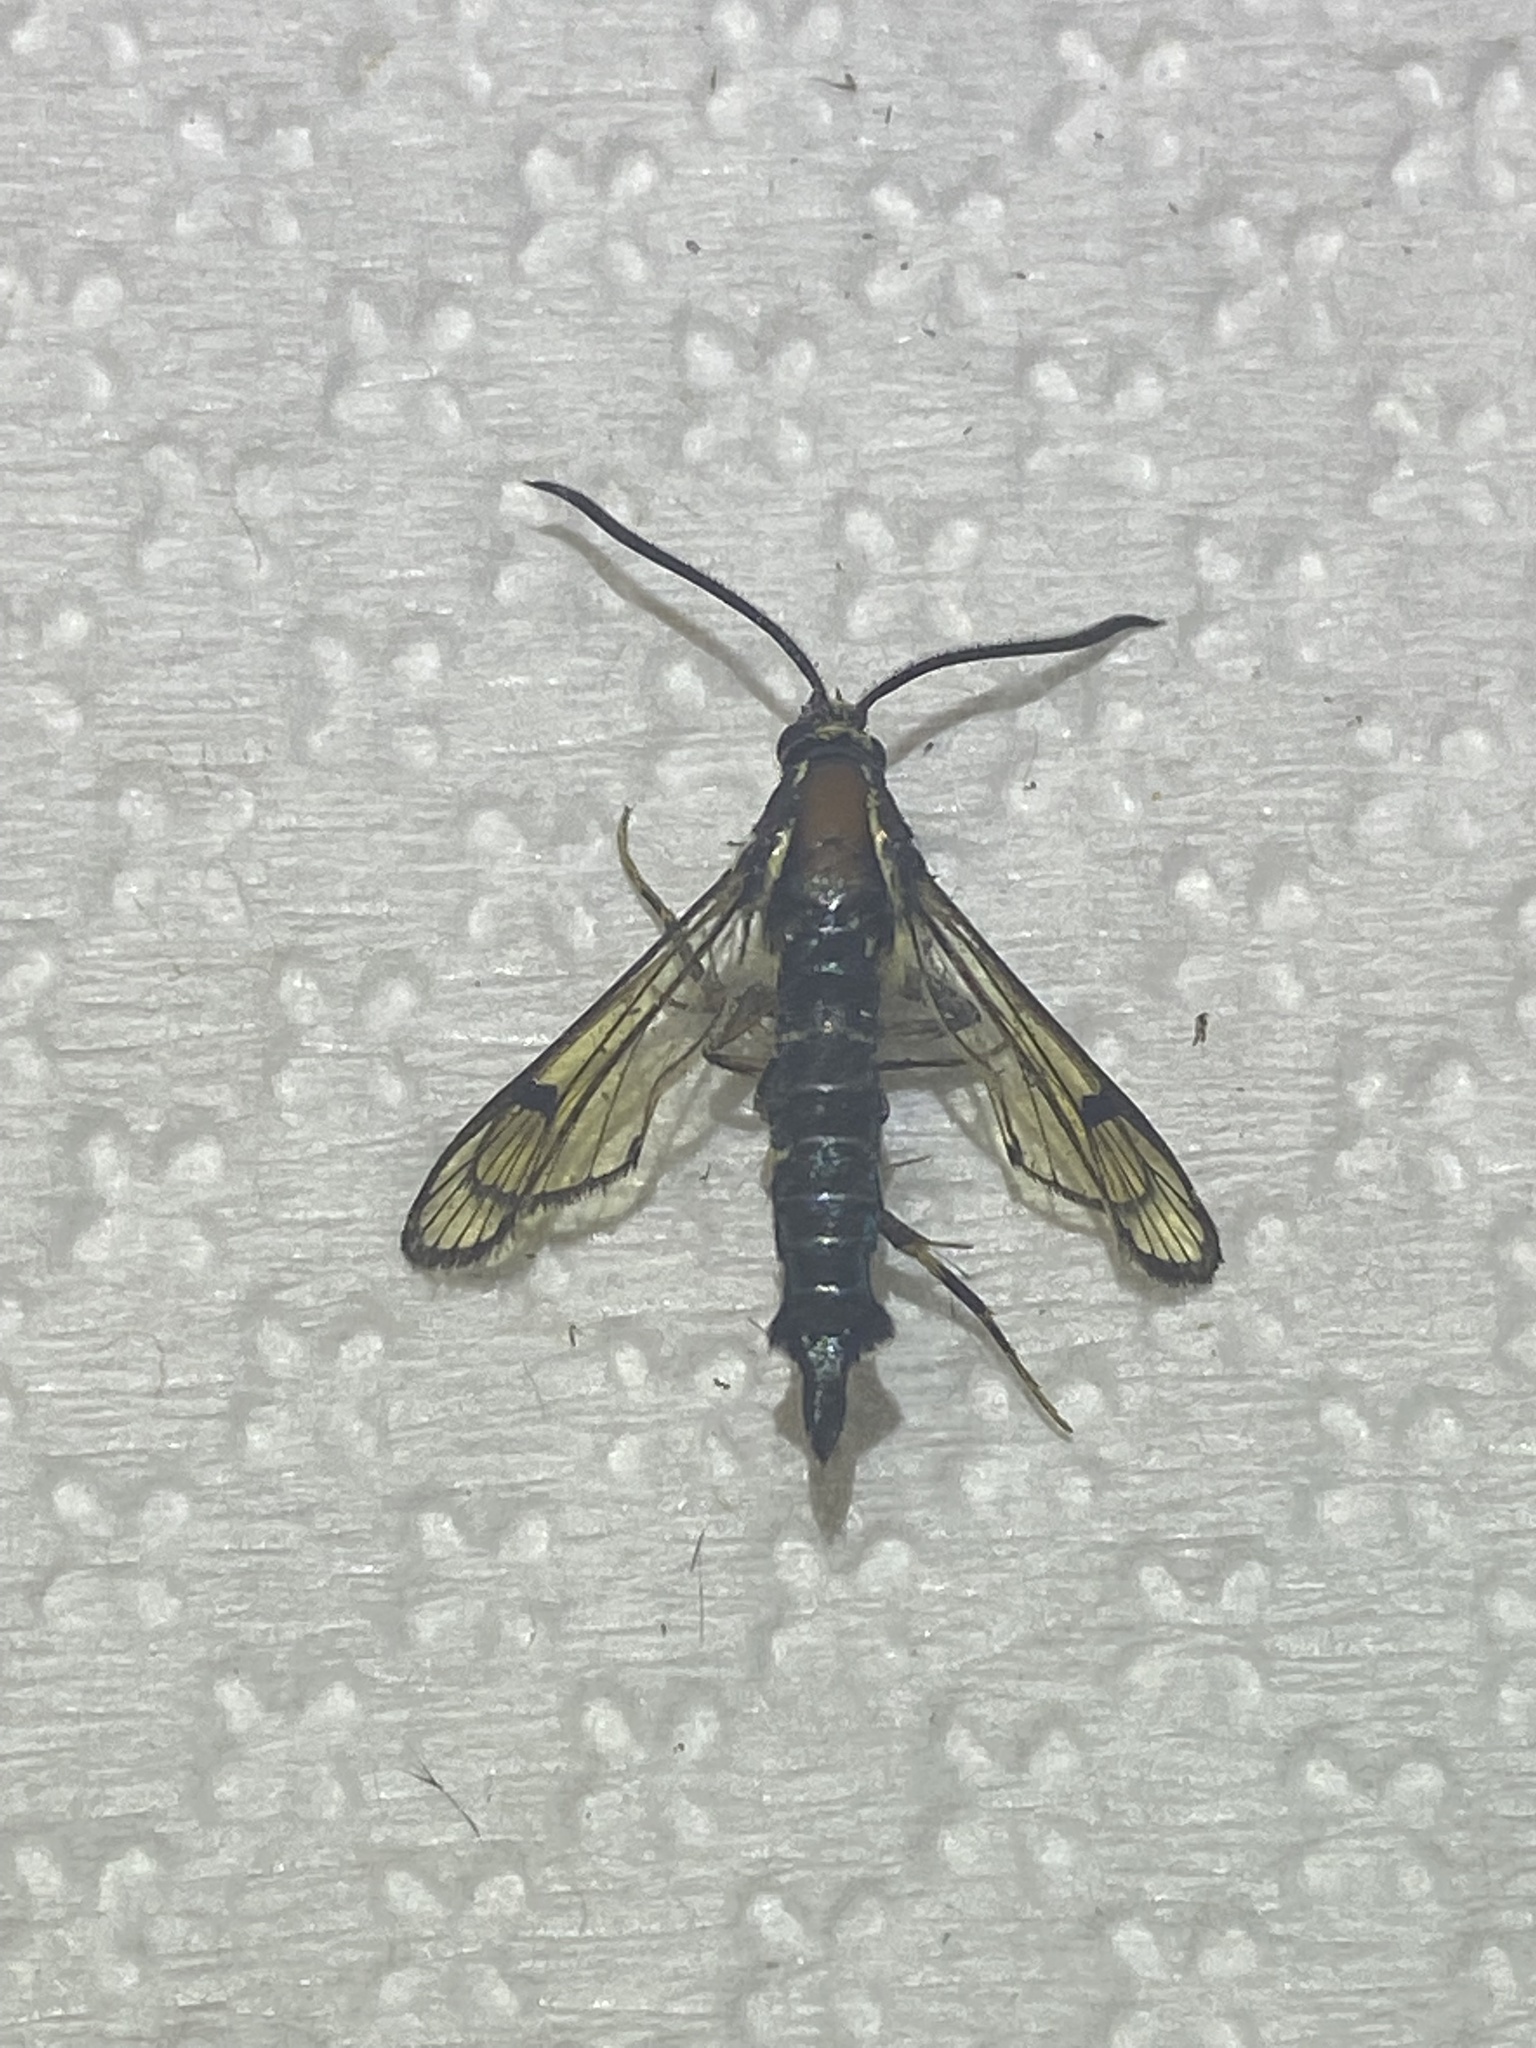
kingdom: Animalia
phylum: Arthropoda
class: Insecta
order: Lepidoptera
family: Sesiidae
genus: Synanthedon
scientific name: Synanthedon exitiosa
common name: Peachtree borer moth
